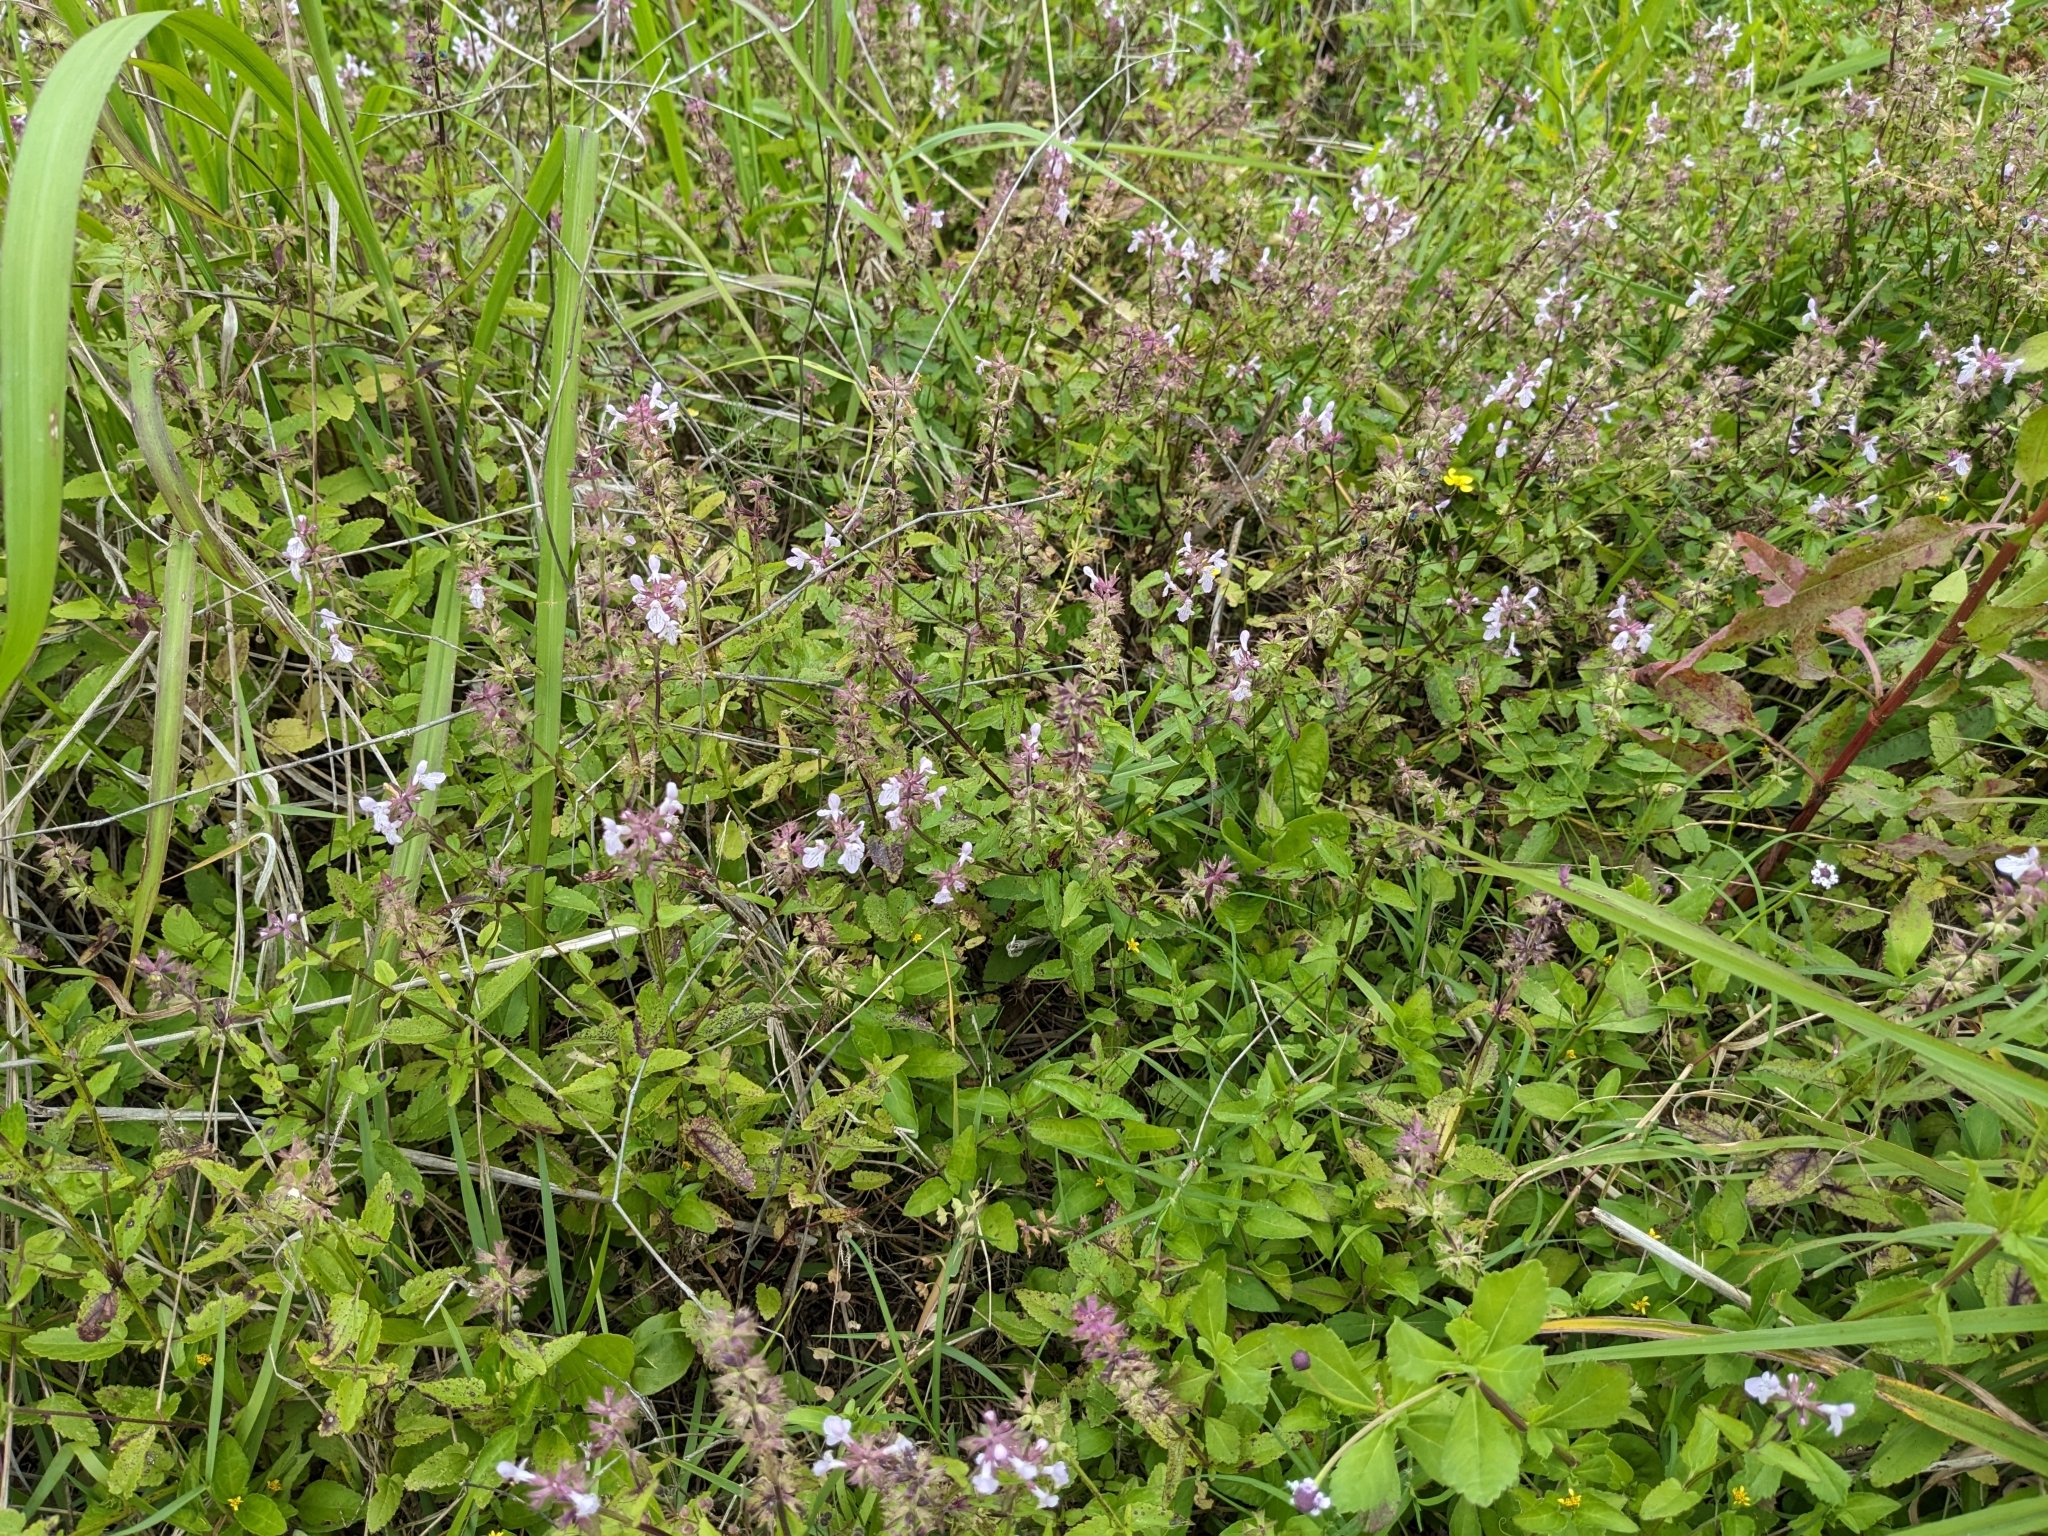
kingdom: Plantae
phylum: Tracheophyta
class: Magnoliopsida
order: Lamiales
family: Lamiaceae
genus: Stachys
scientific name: Stachys floridana
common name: Florida betony
